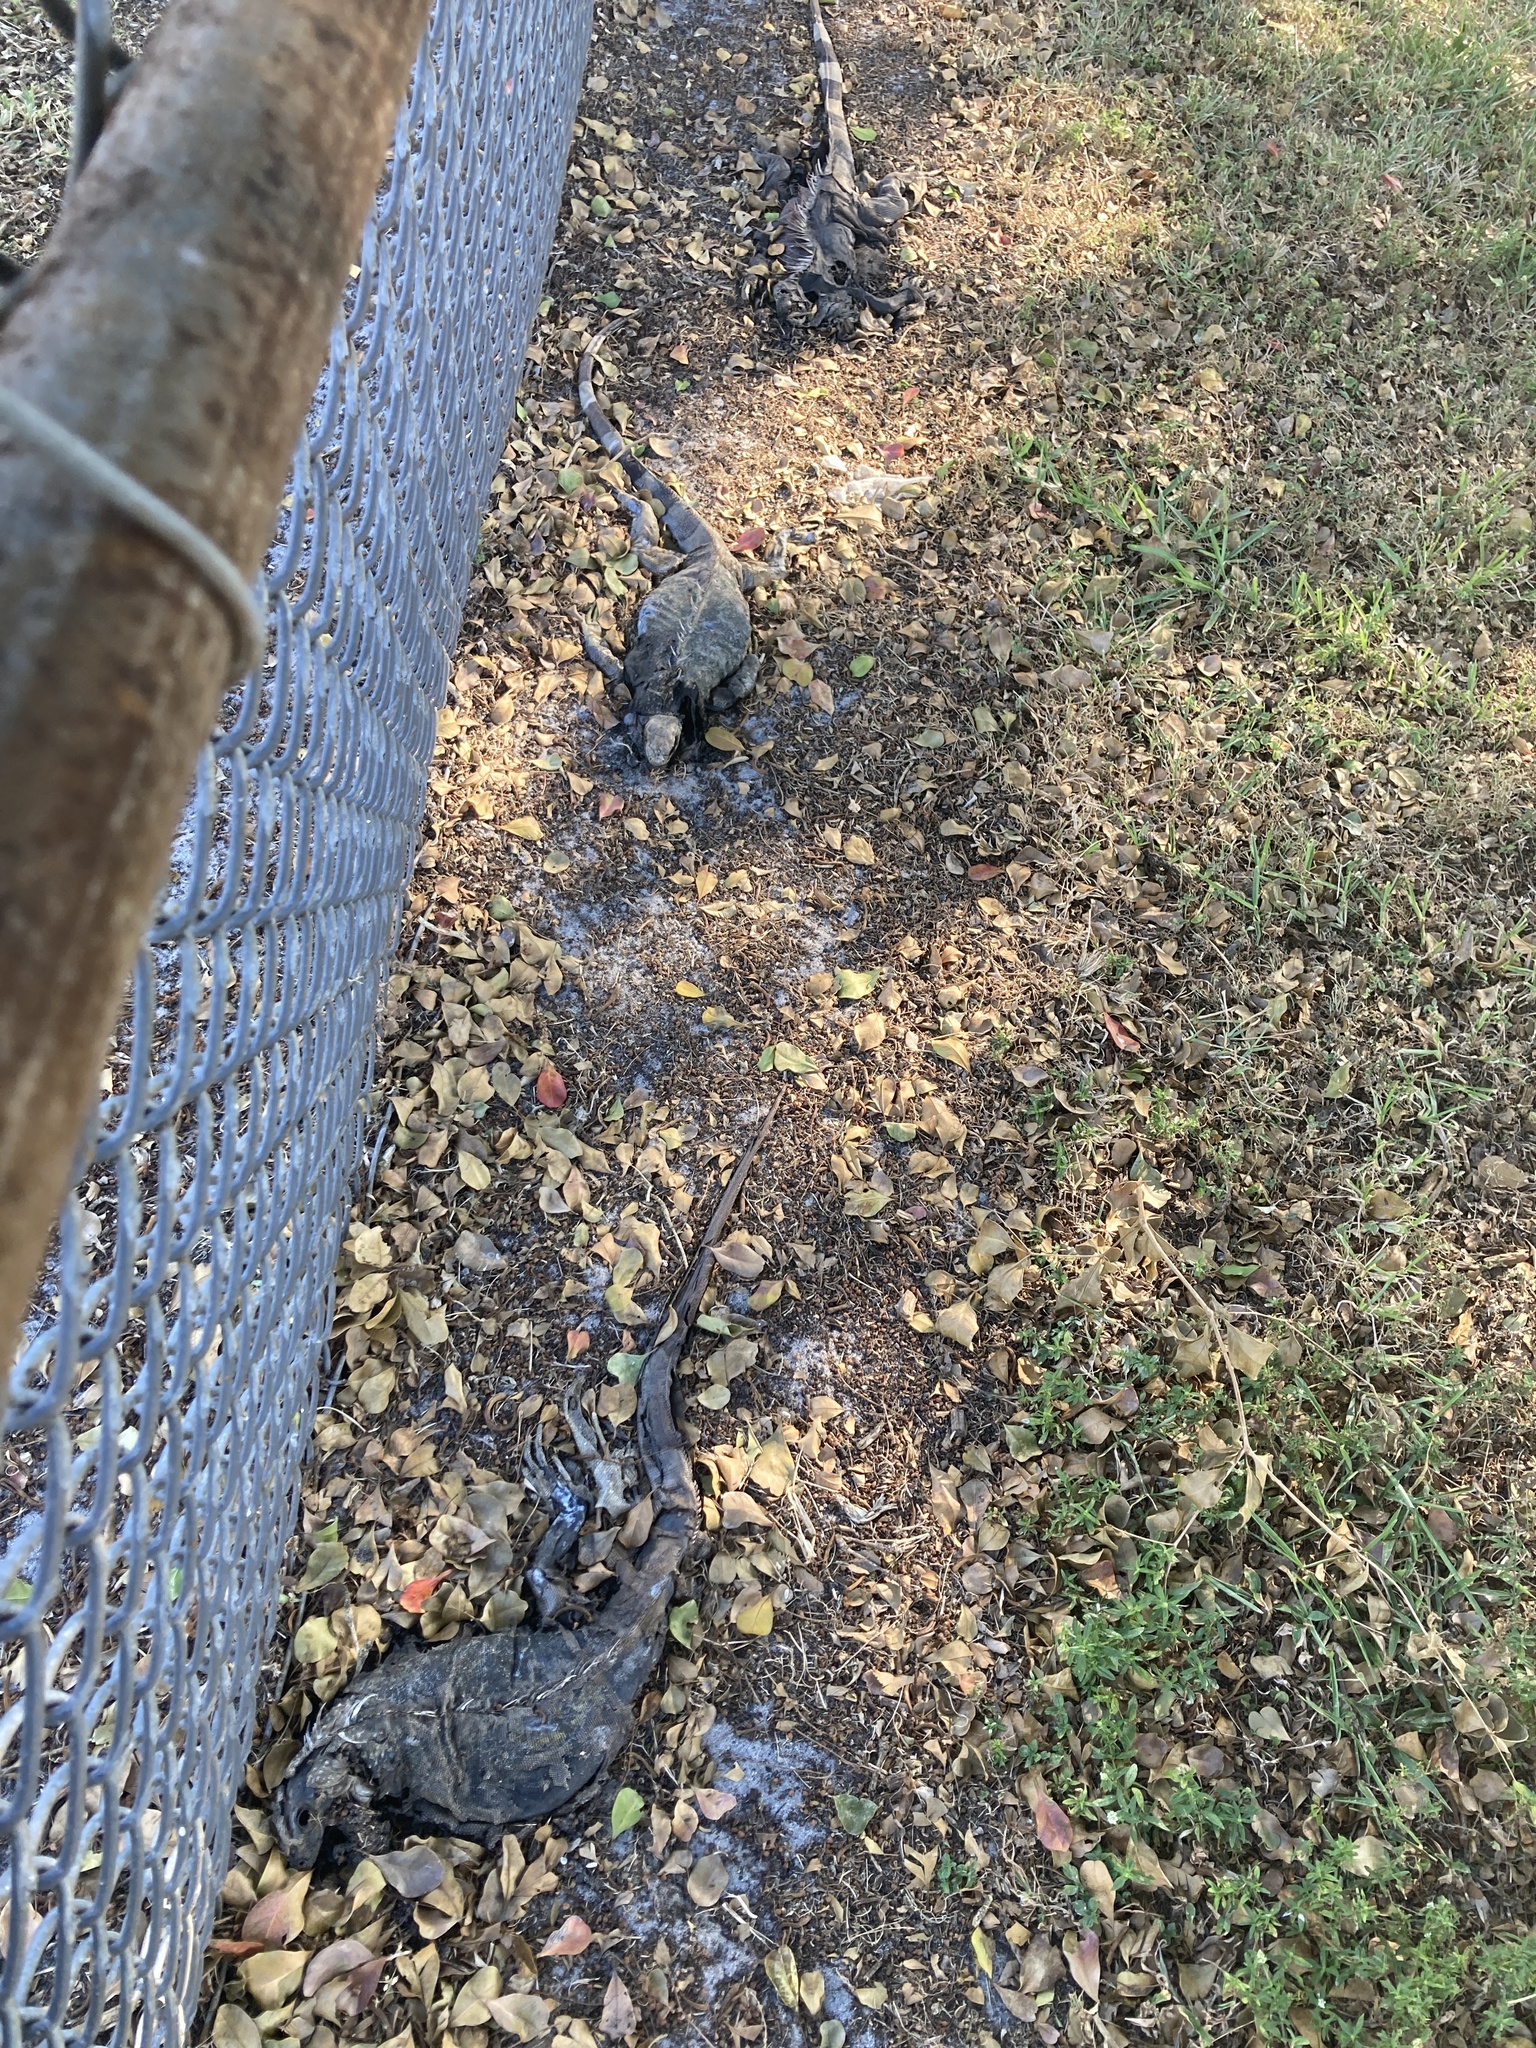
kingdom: Animalia
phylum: Chordata
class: Squamata
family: Iguanidae
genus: Iguana
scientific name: Iguana iguana
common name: Green iguana
